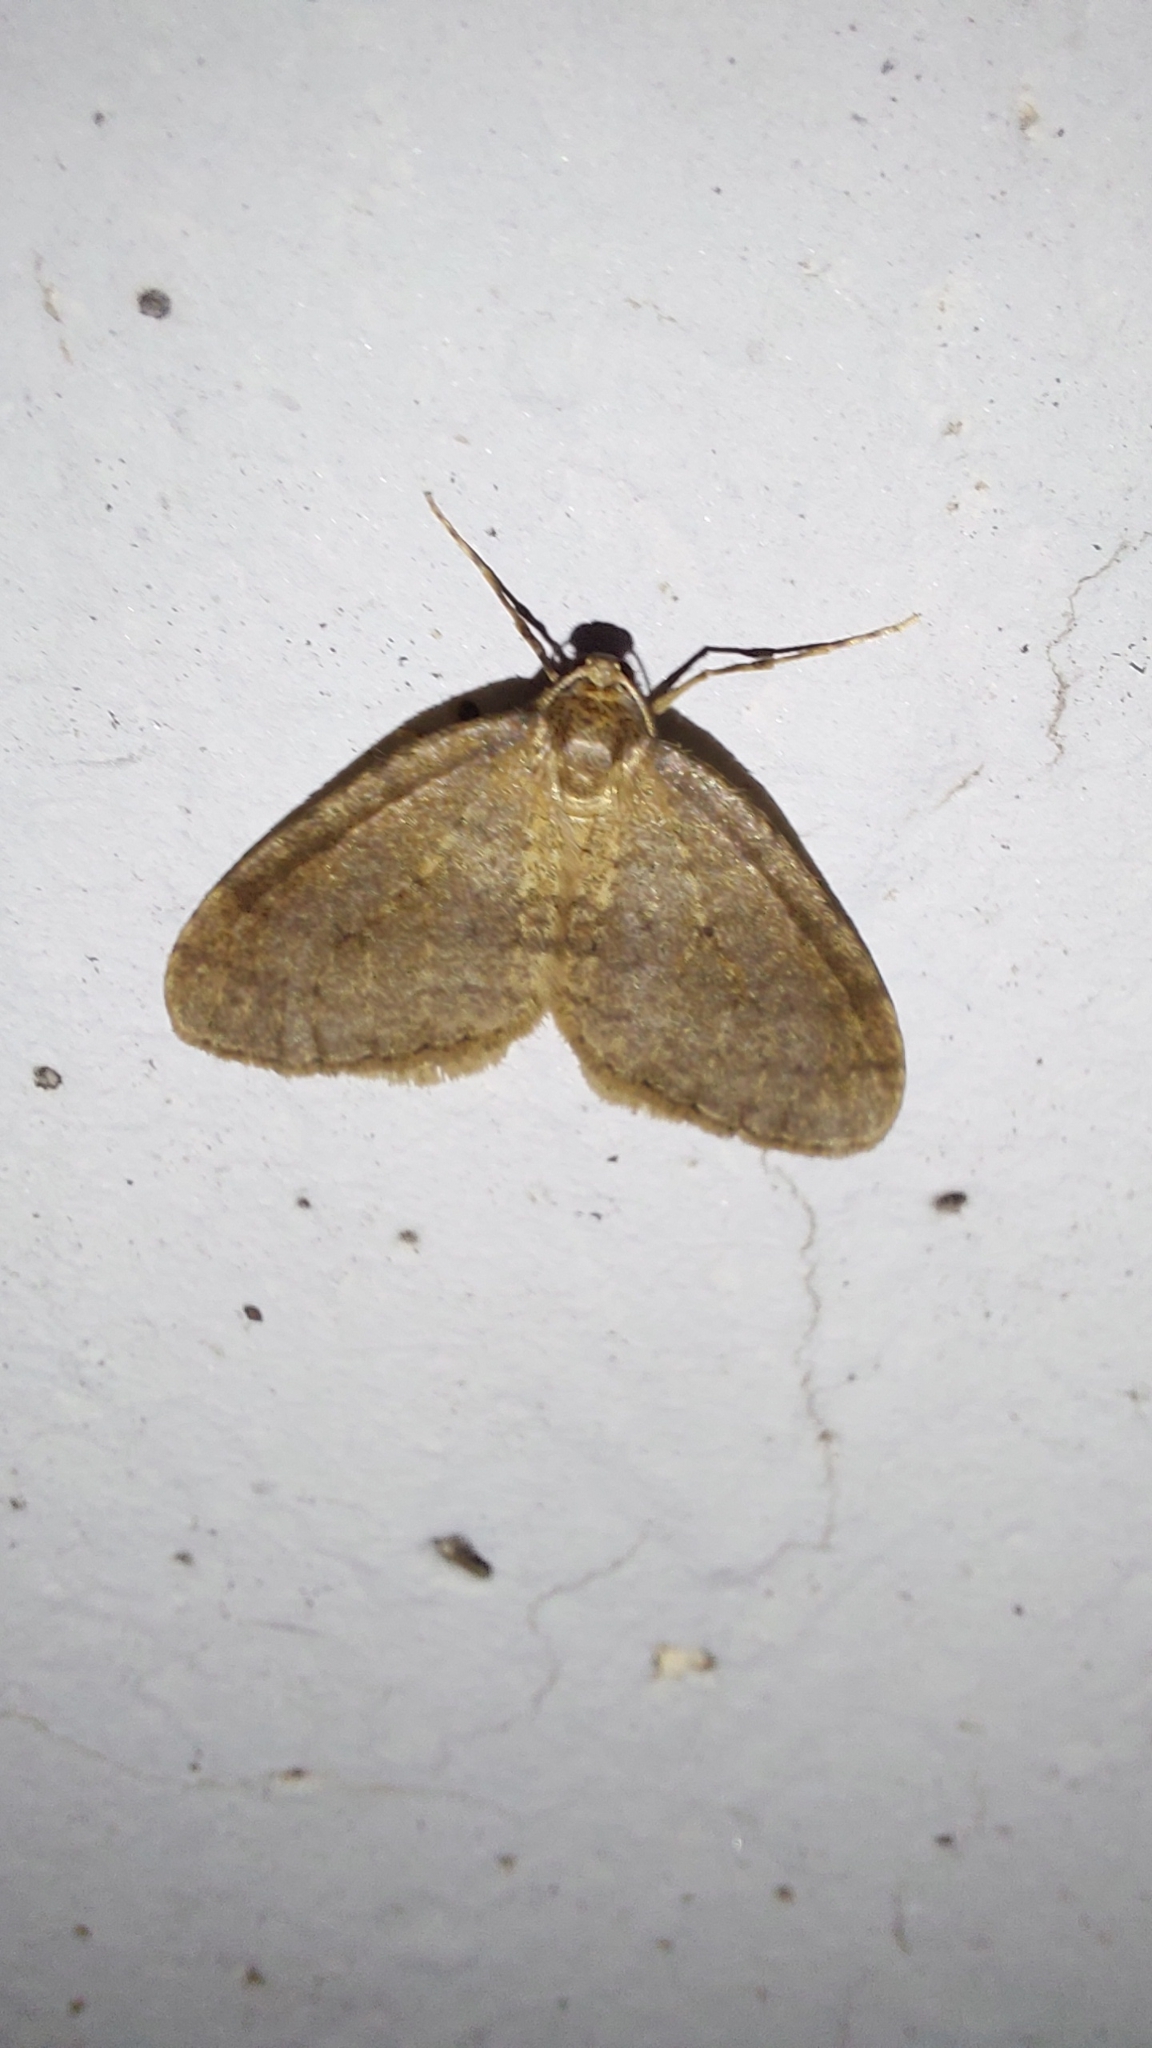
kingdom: Animalia
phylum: Arthropoda
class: Insecta
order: Lepidoptera
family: Geometridae
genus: Operophtera
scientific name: Operophtera brumata
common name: Winter moth
